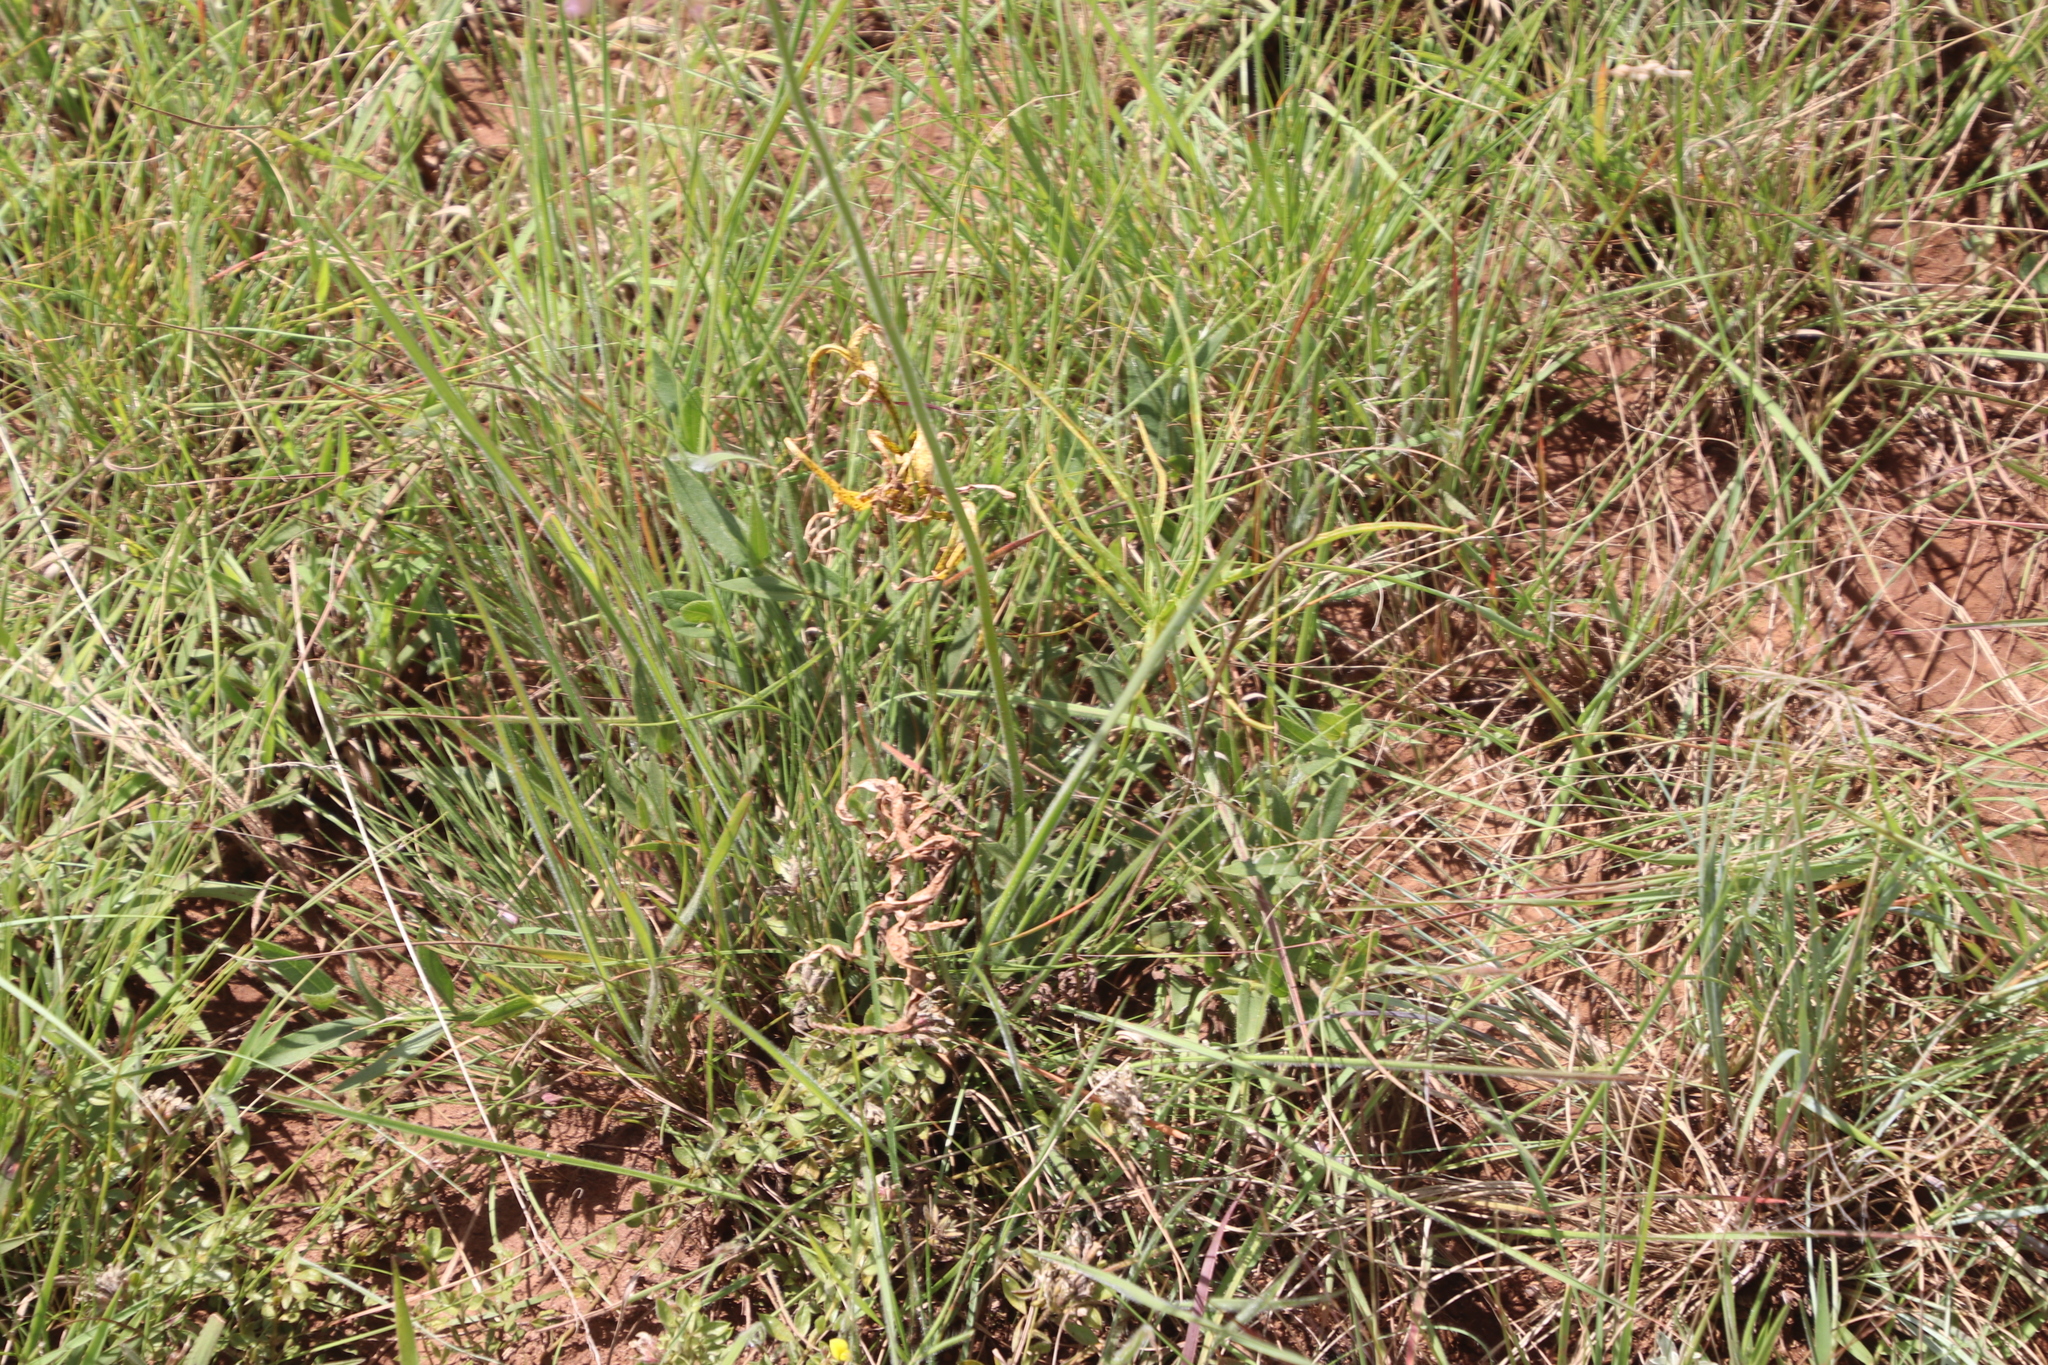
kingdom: Plantae
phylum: Tracheophyta
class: Magnoliopsida
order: Geraniales
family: Geraniaceae
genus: Pelargonium
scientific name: Pelargonium luridum
